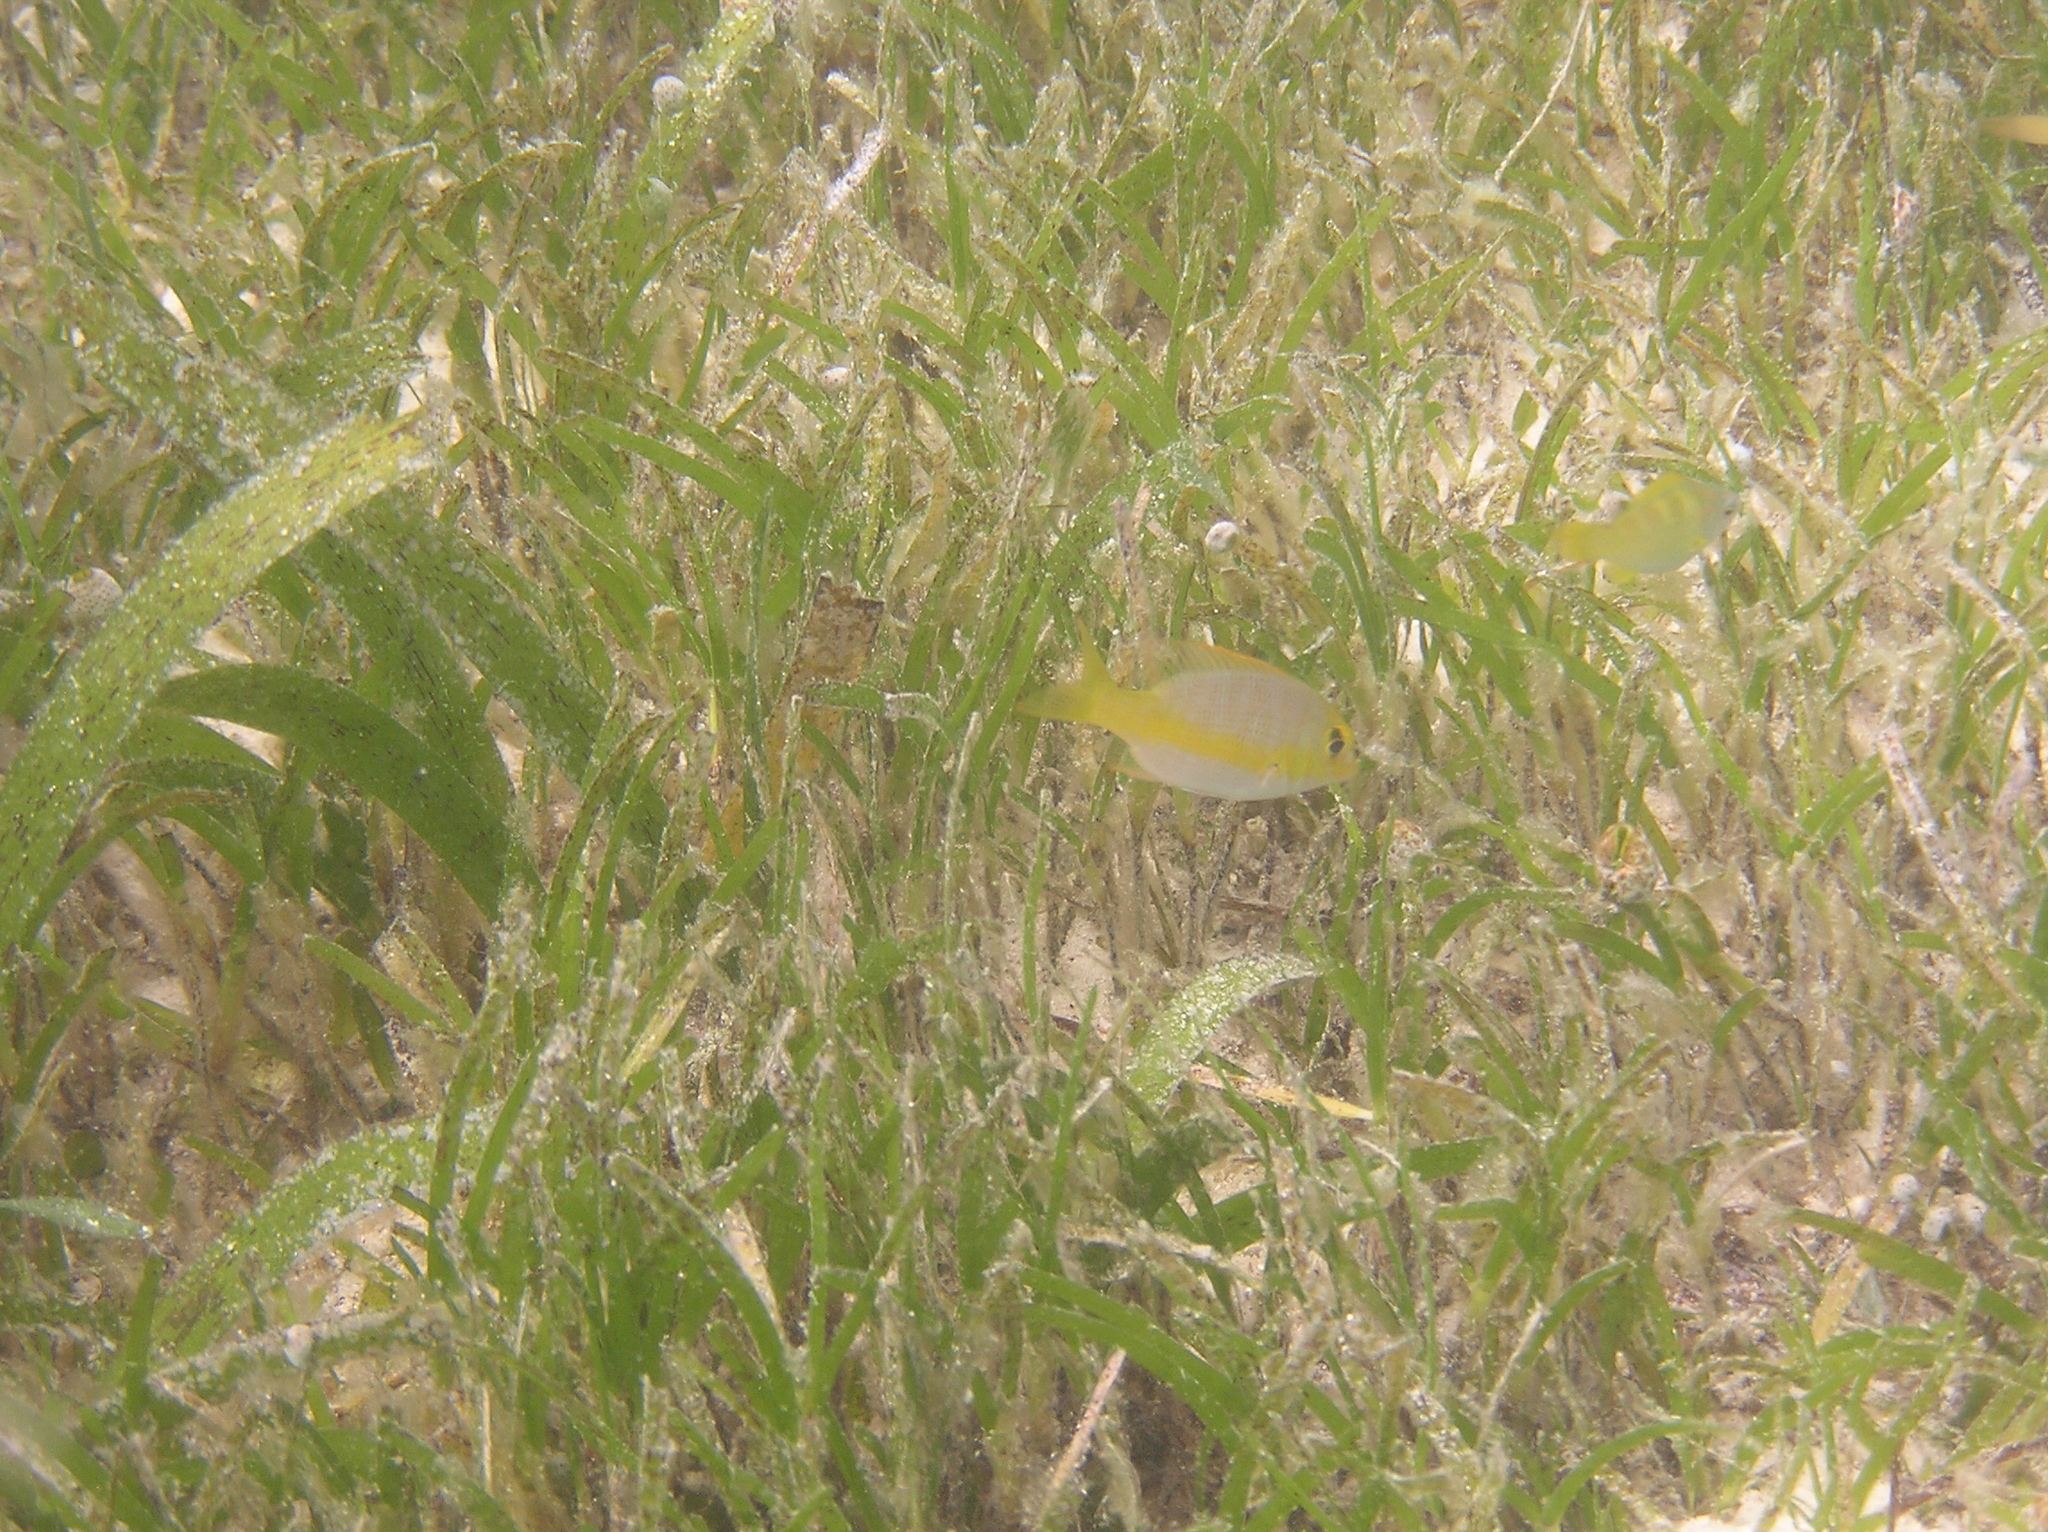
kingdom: Animalia
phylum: Chordata
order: Perciformes
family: Lethrinidae
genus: Lethrinus
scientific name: Lethrinus atkinsoni
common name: Pacific yellowtail emperor
